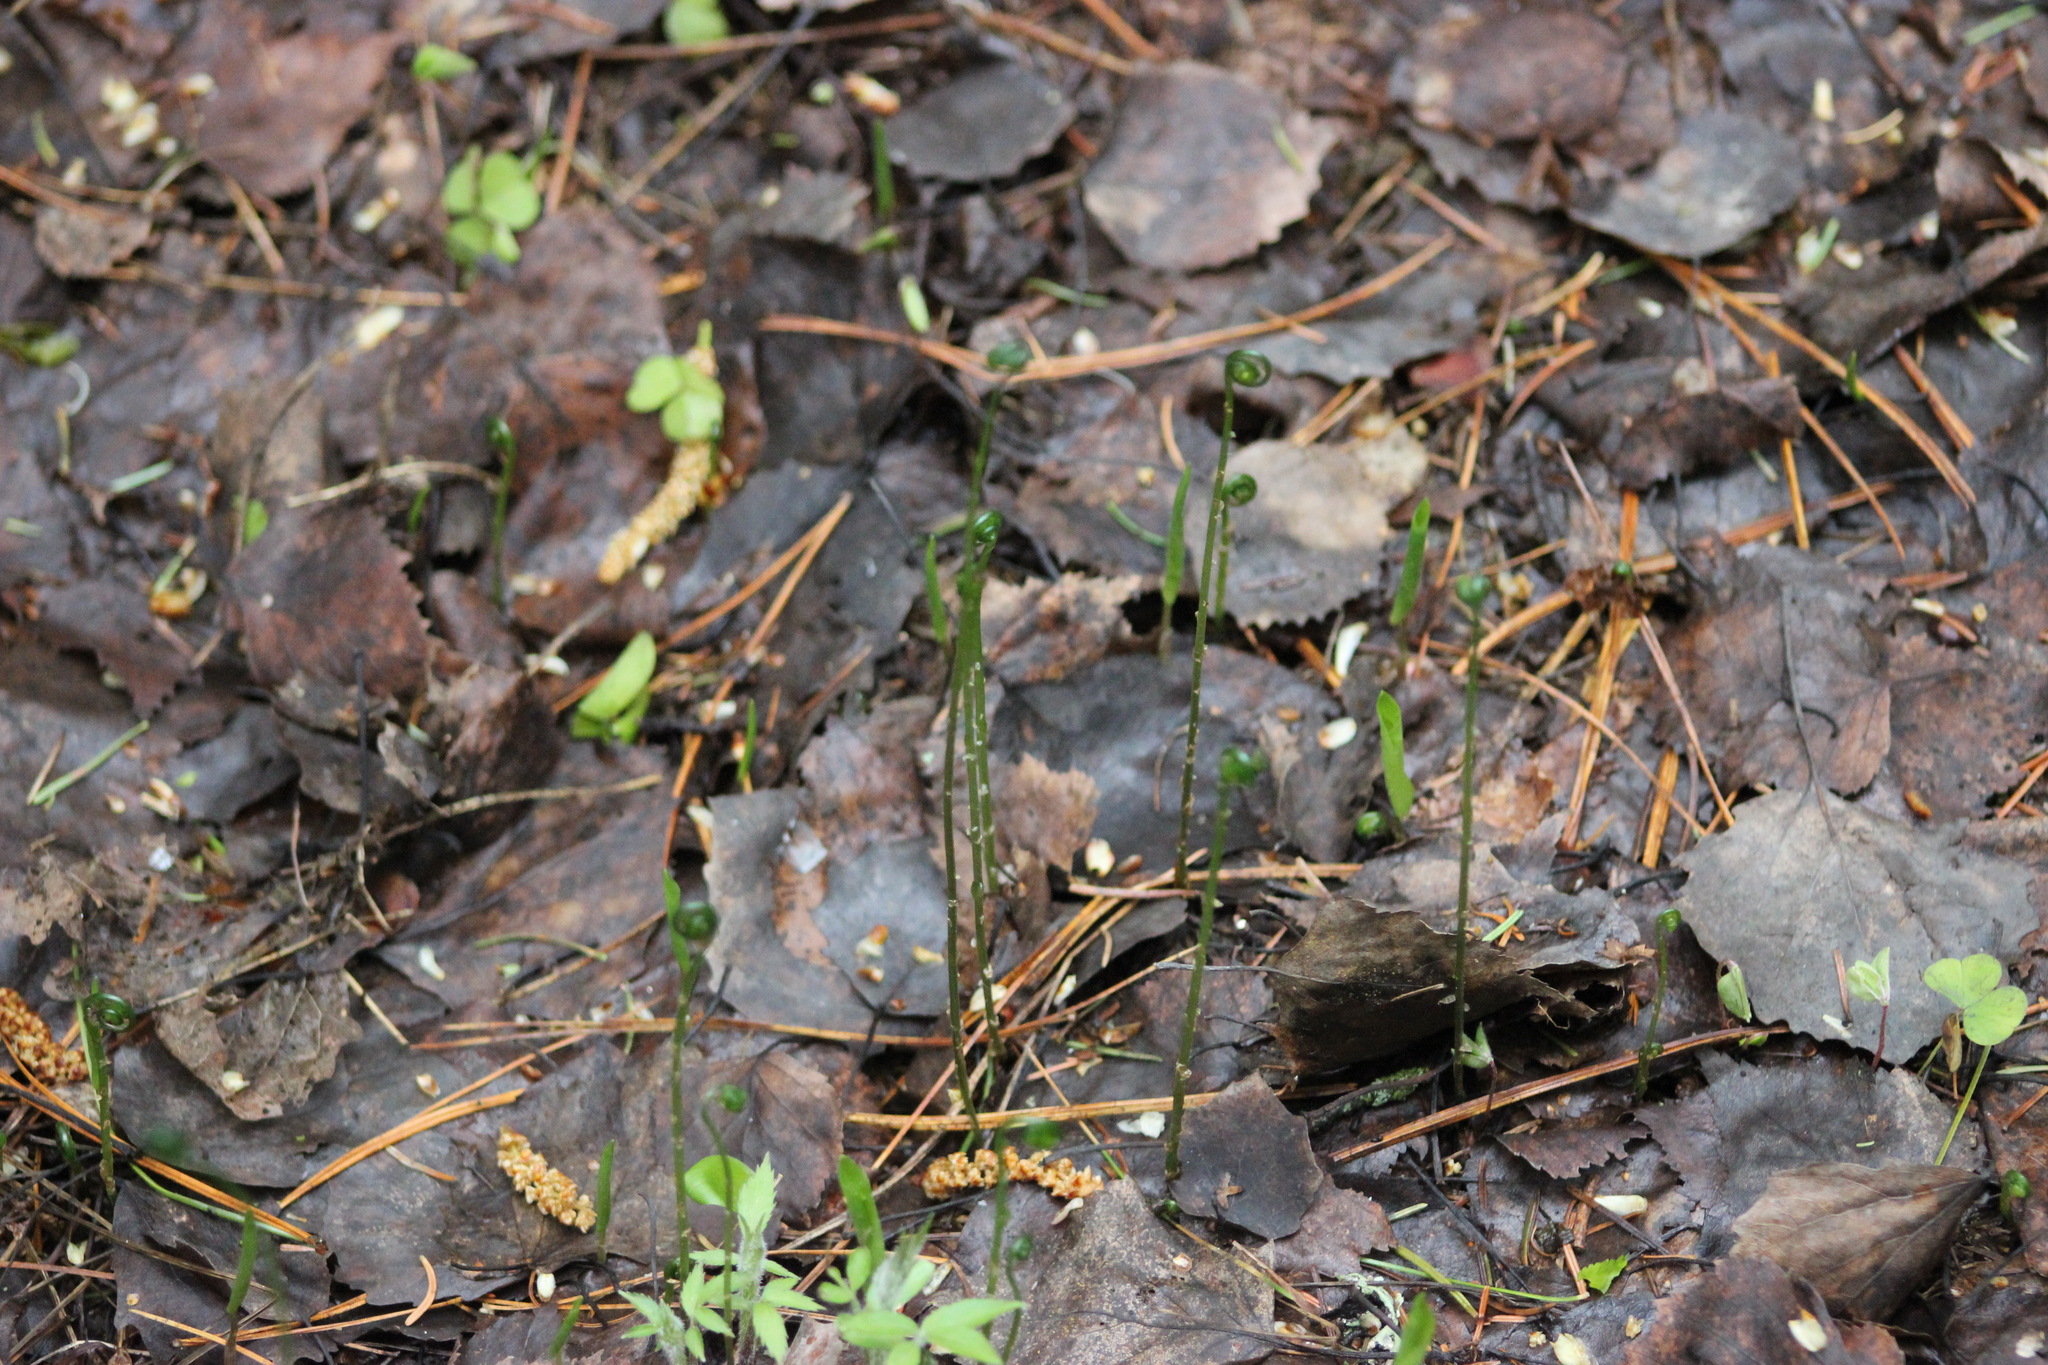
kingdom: Plantae
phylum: Tracheophyta
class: Polypodiopsida
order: Polypodiales
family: Cystopteridaceae
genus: Gymnocarpium
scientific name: Gymnocarpium dryopteris
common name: Oak fern
